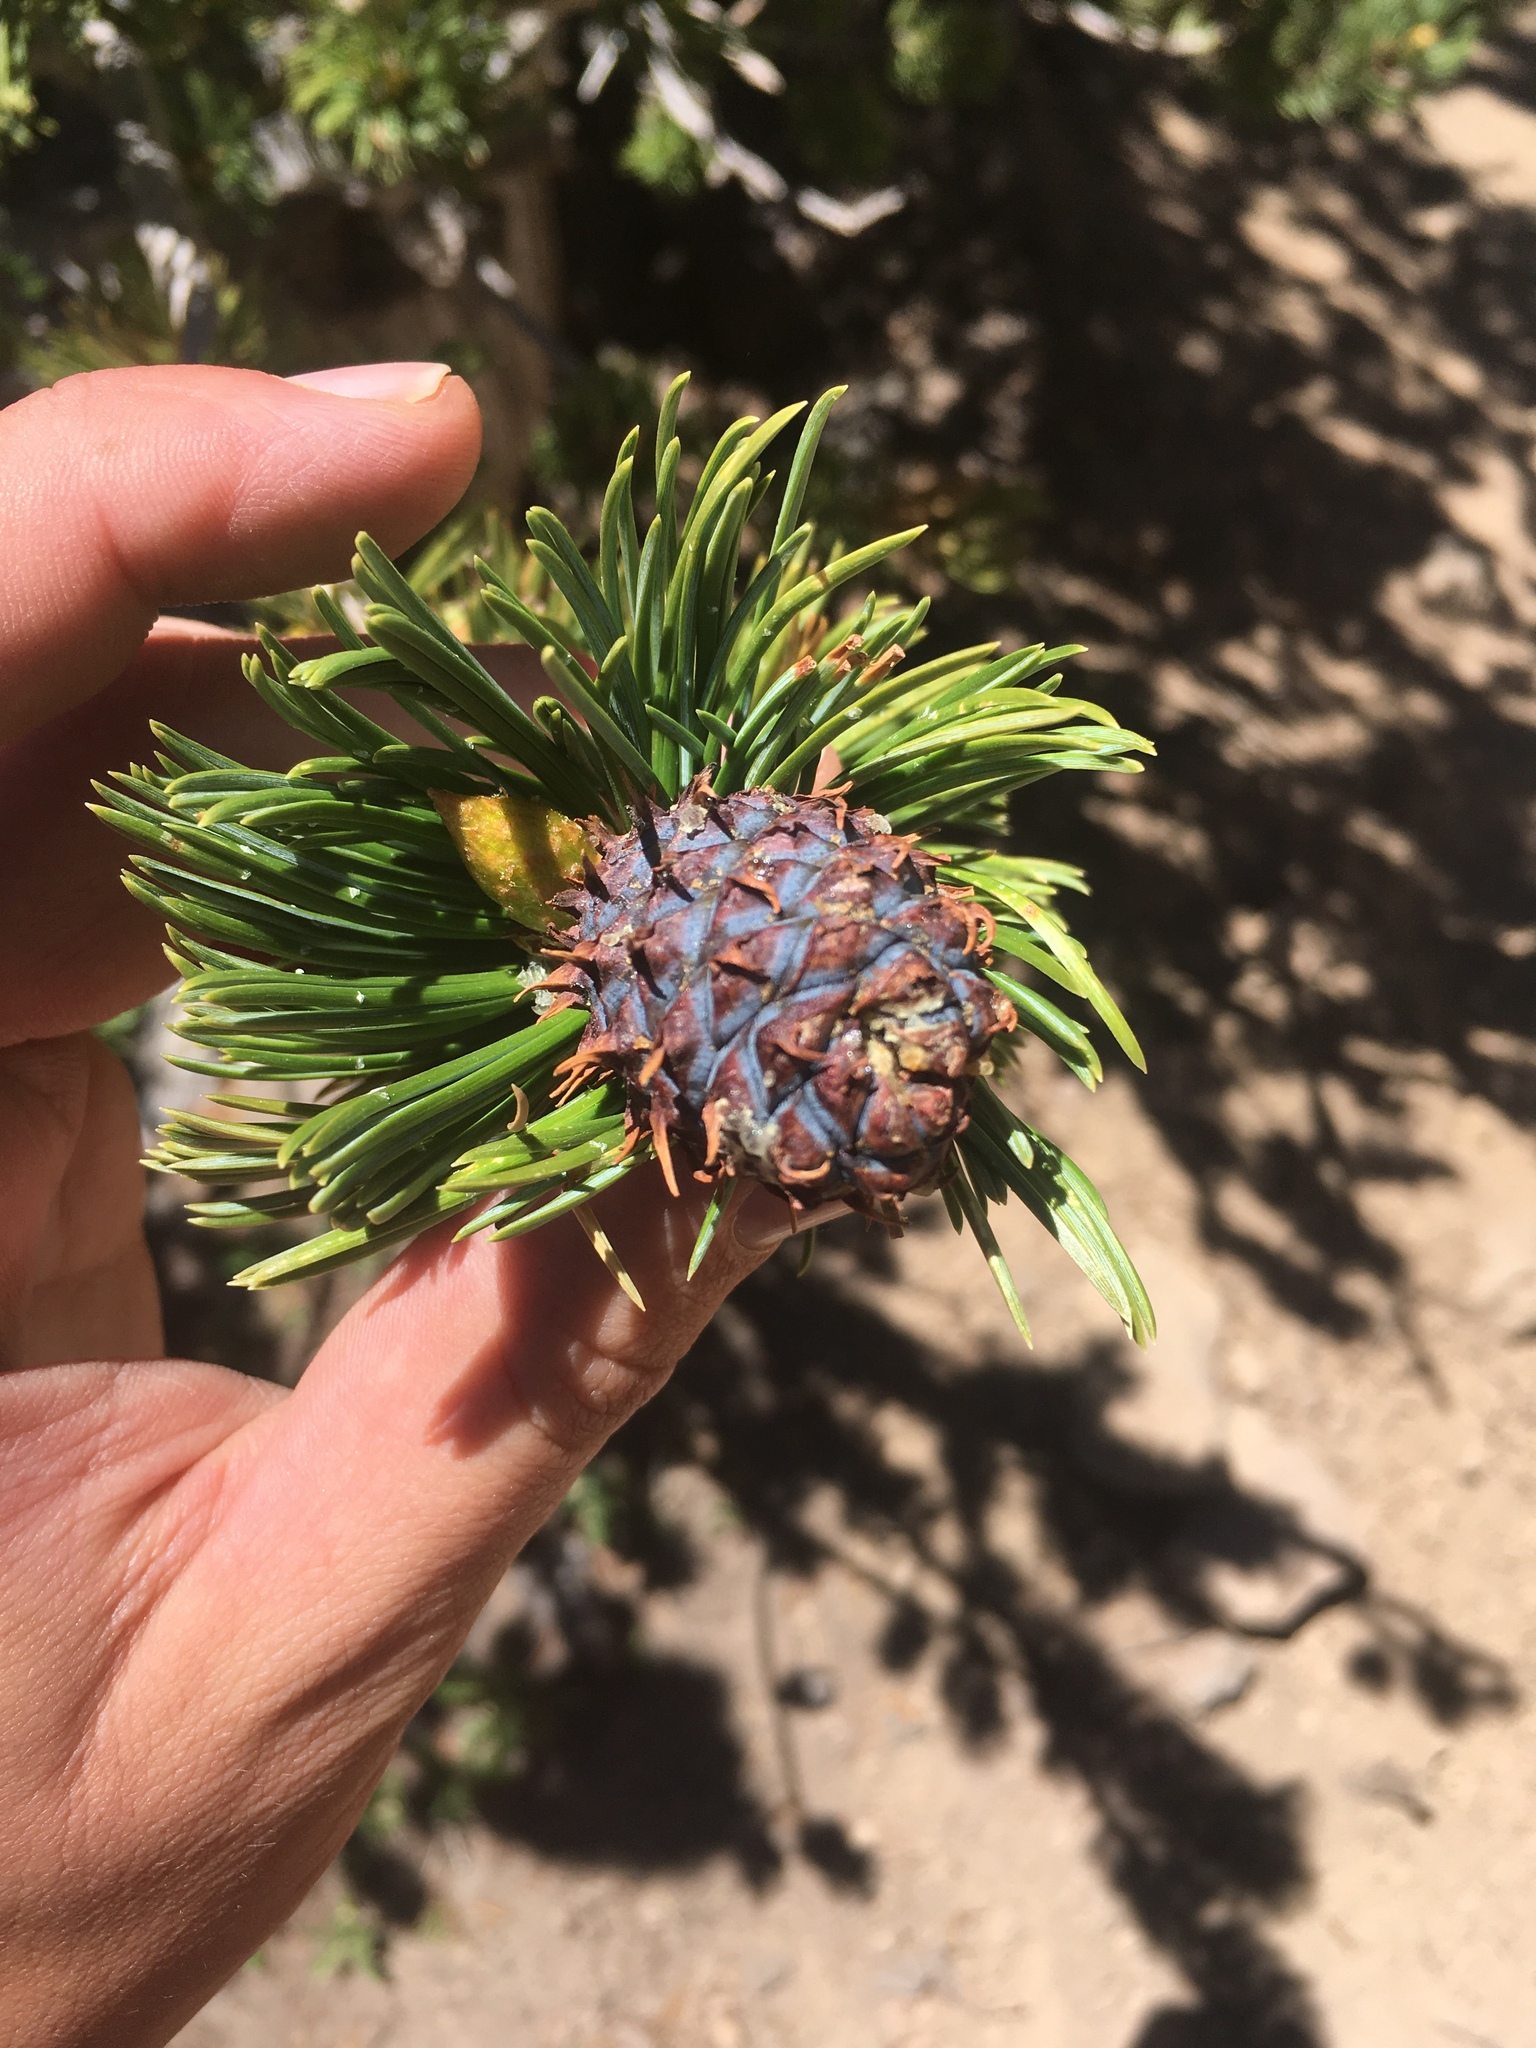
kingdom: Plantae
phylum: Tracheophyta
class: Pinopsida
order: Pinales
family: Pinaceae
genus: Pinus
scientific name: Pinus aristata
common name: Colorado bristlecone pine
